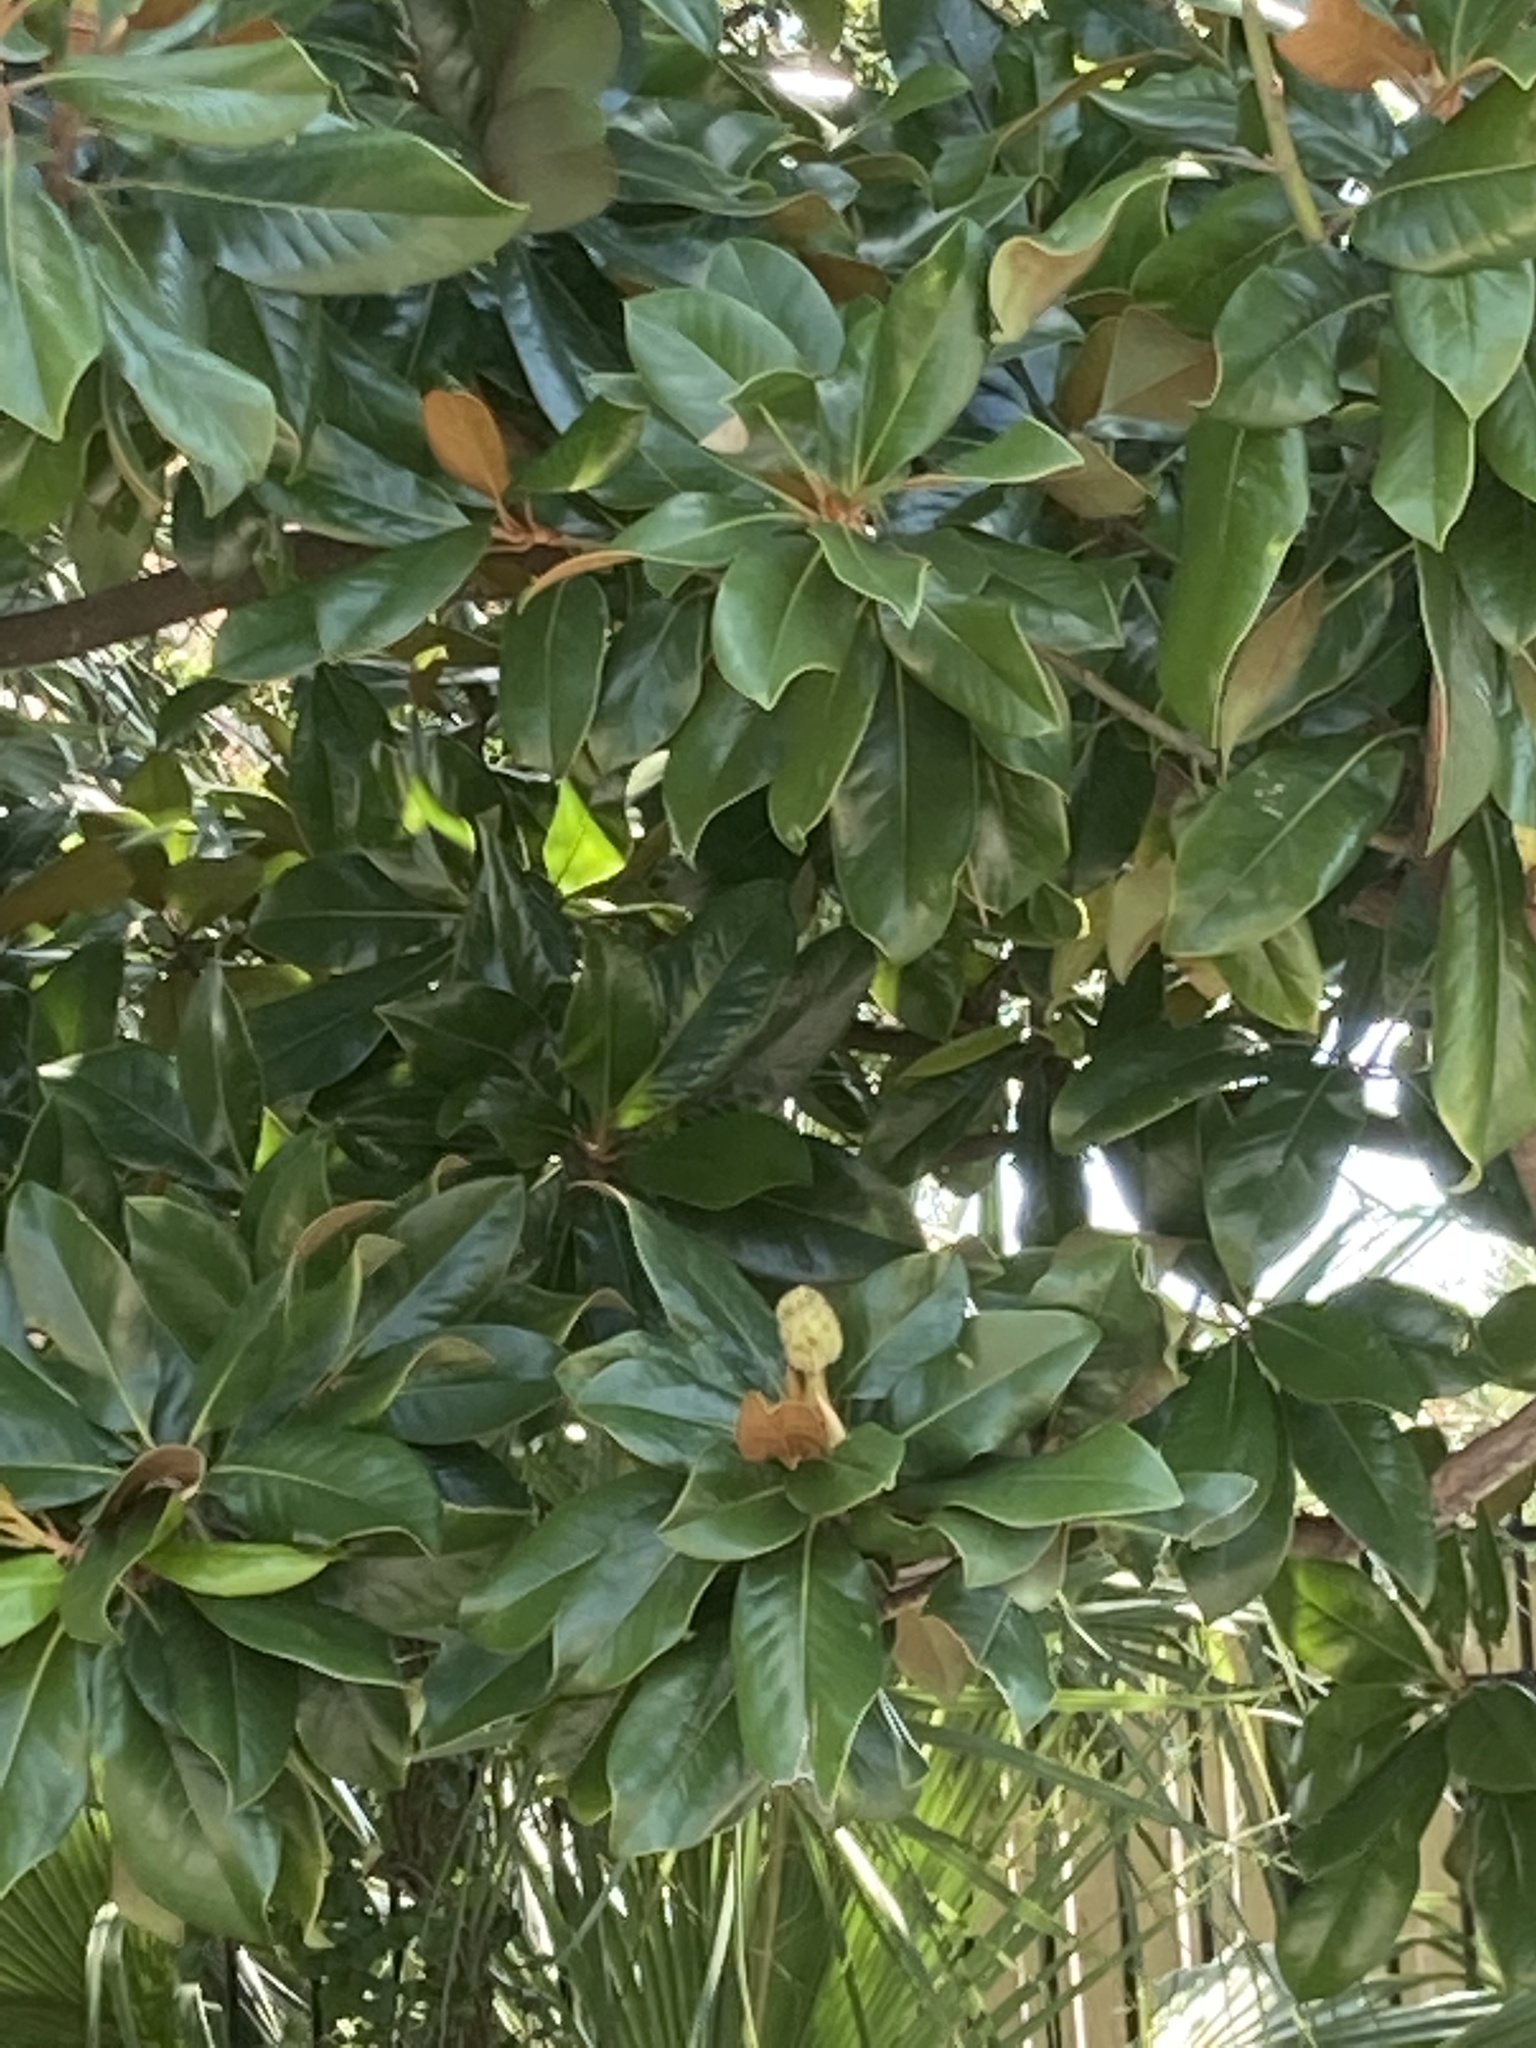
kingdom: Plantae
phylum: Tracheophyta
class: Magnoliopsida
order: Magnoliales
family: Magnoliaceae
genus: Magnolia
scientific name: Magnolia grandiflora
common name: Southern magnolia
